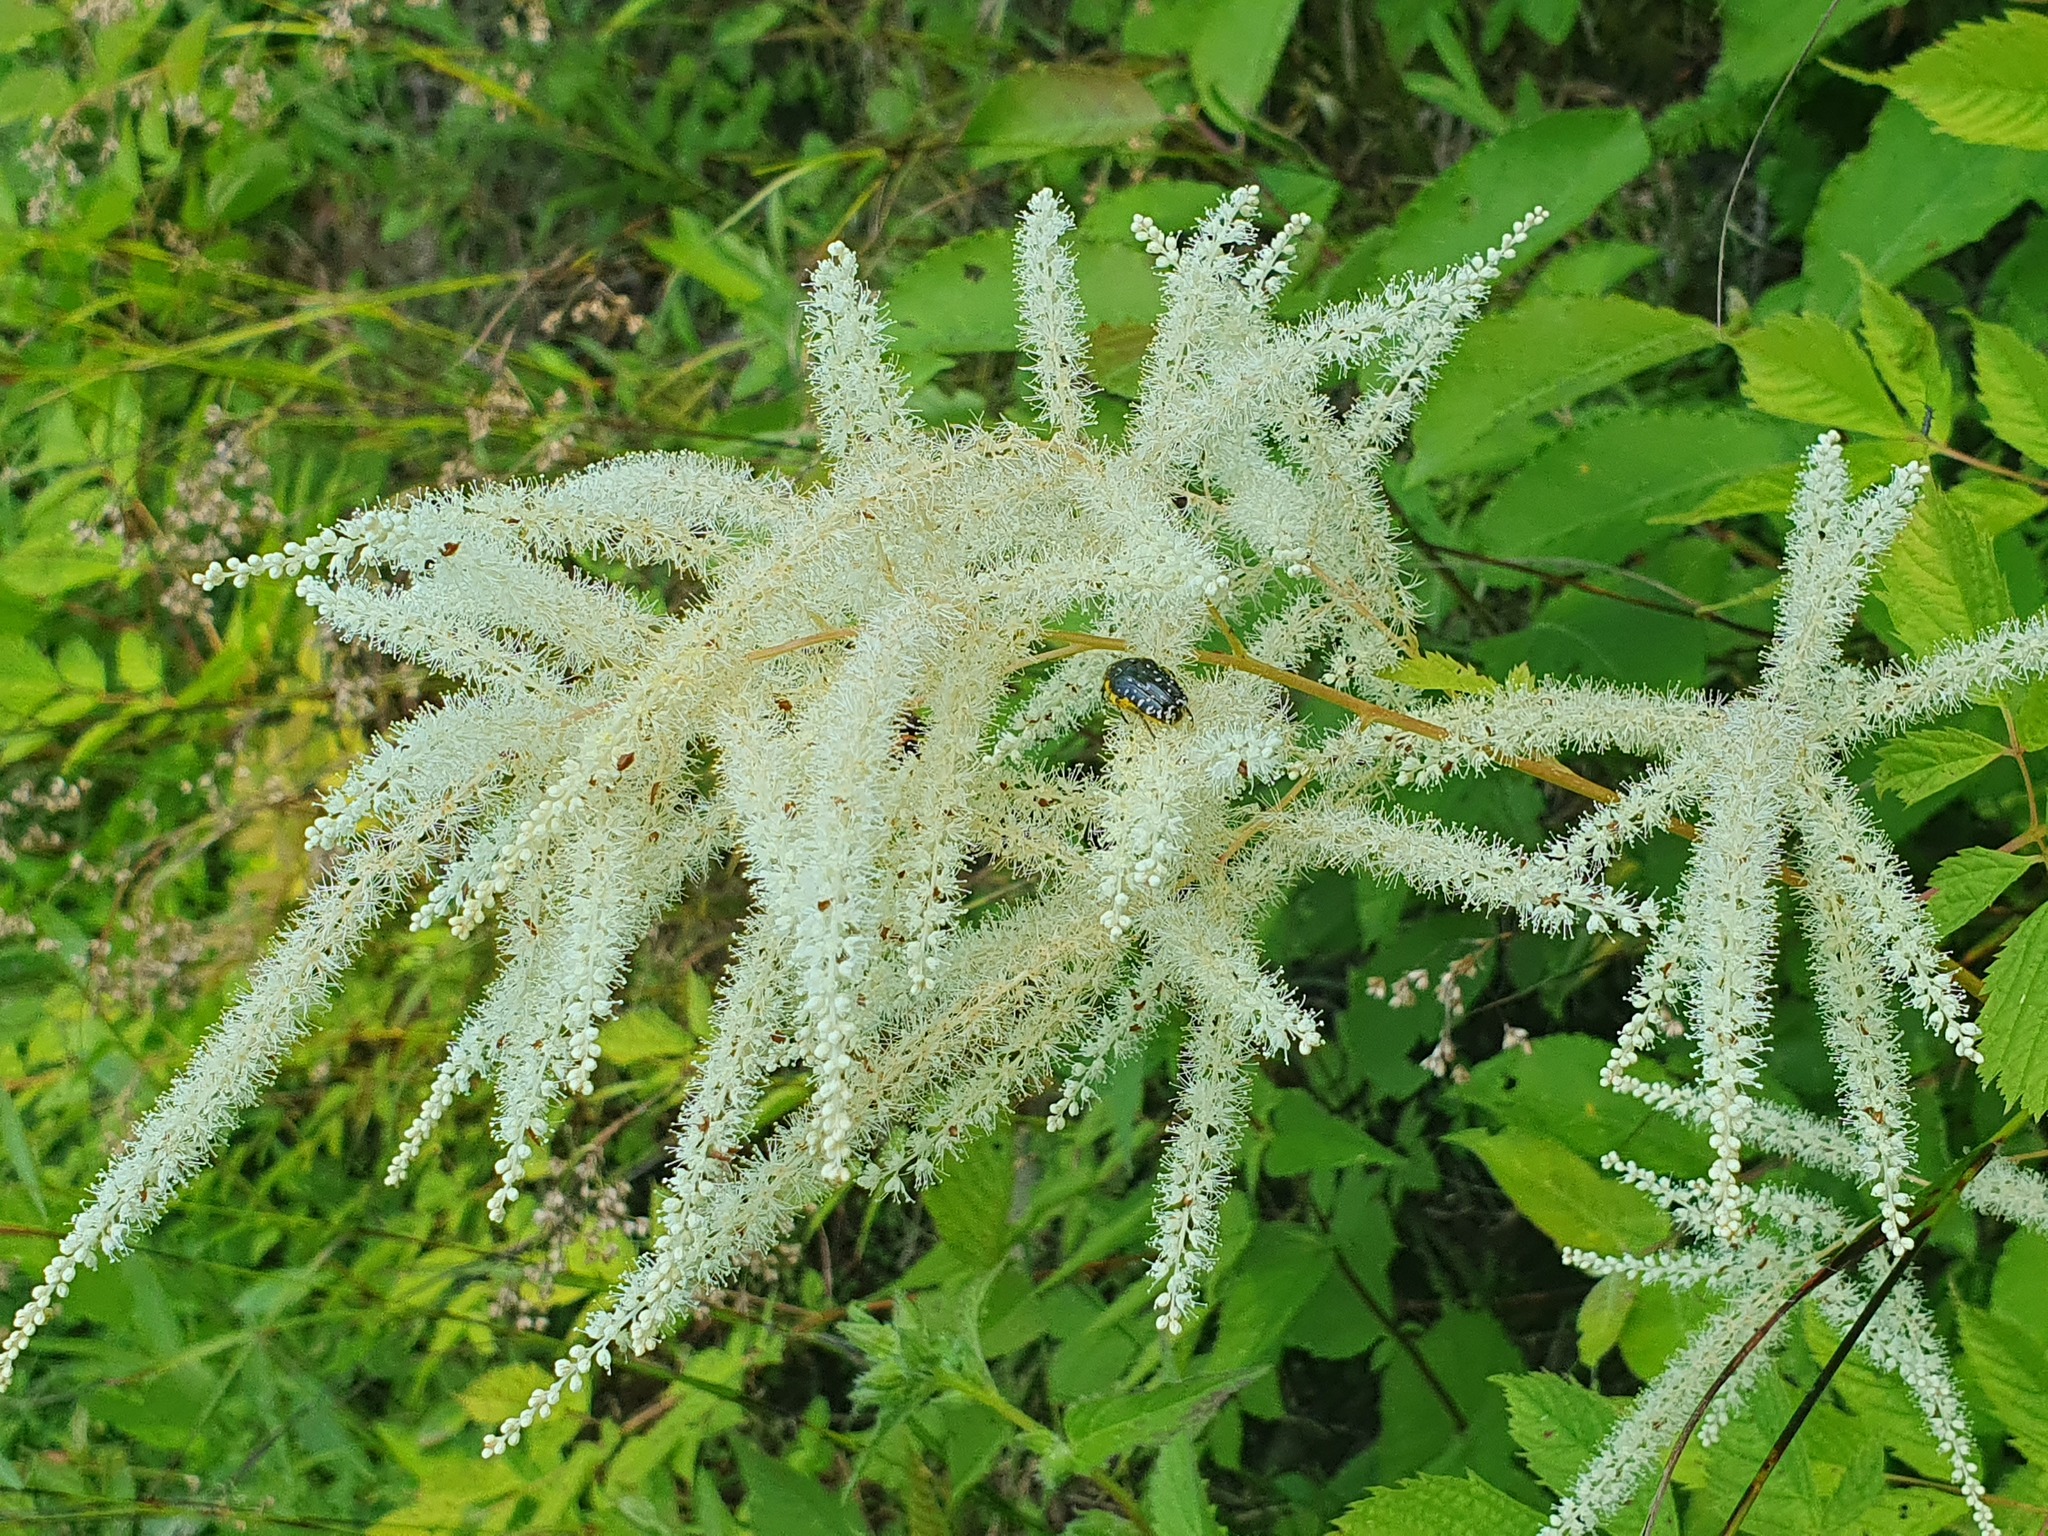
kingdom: Plantae
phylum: Tracheophyta
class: Magnoliopsida
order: Rosales
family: Rosaceae
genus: Aruncus
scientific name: Aruncus dioicus
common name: Buck's-beard
